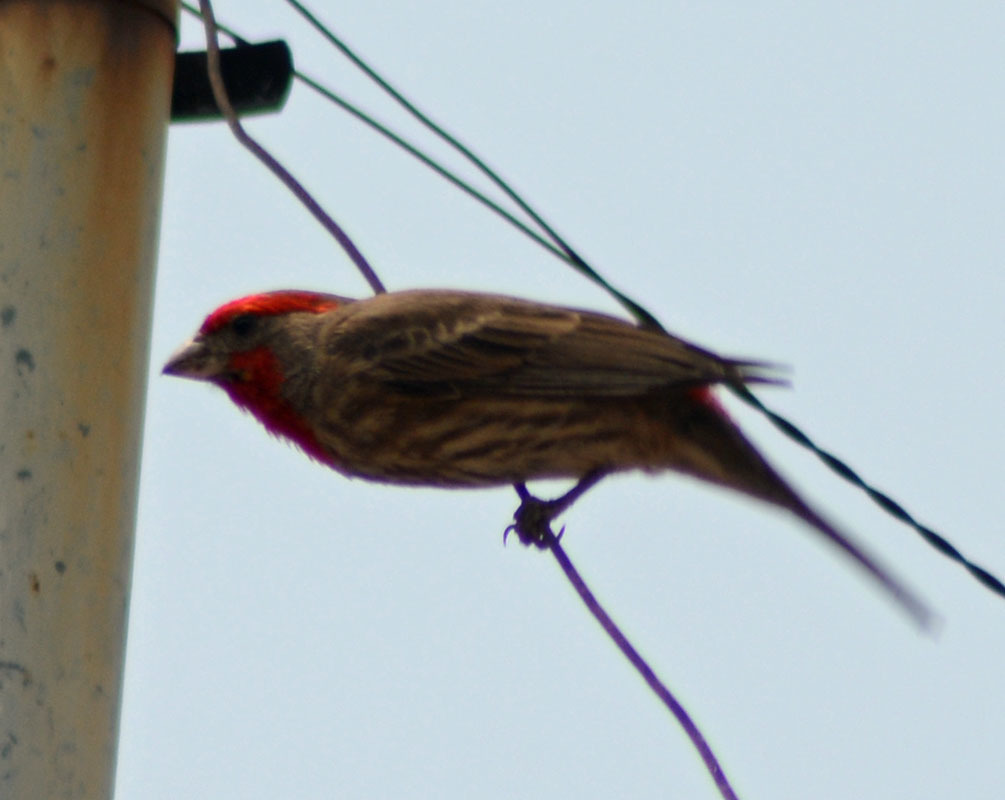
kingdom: Animalia
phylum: Chordata
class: Aves
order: Passeriformes
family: Fringillidae
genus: Haemorhous
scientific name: Haemorhous mexicanus
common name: House finch
